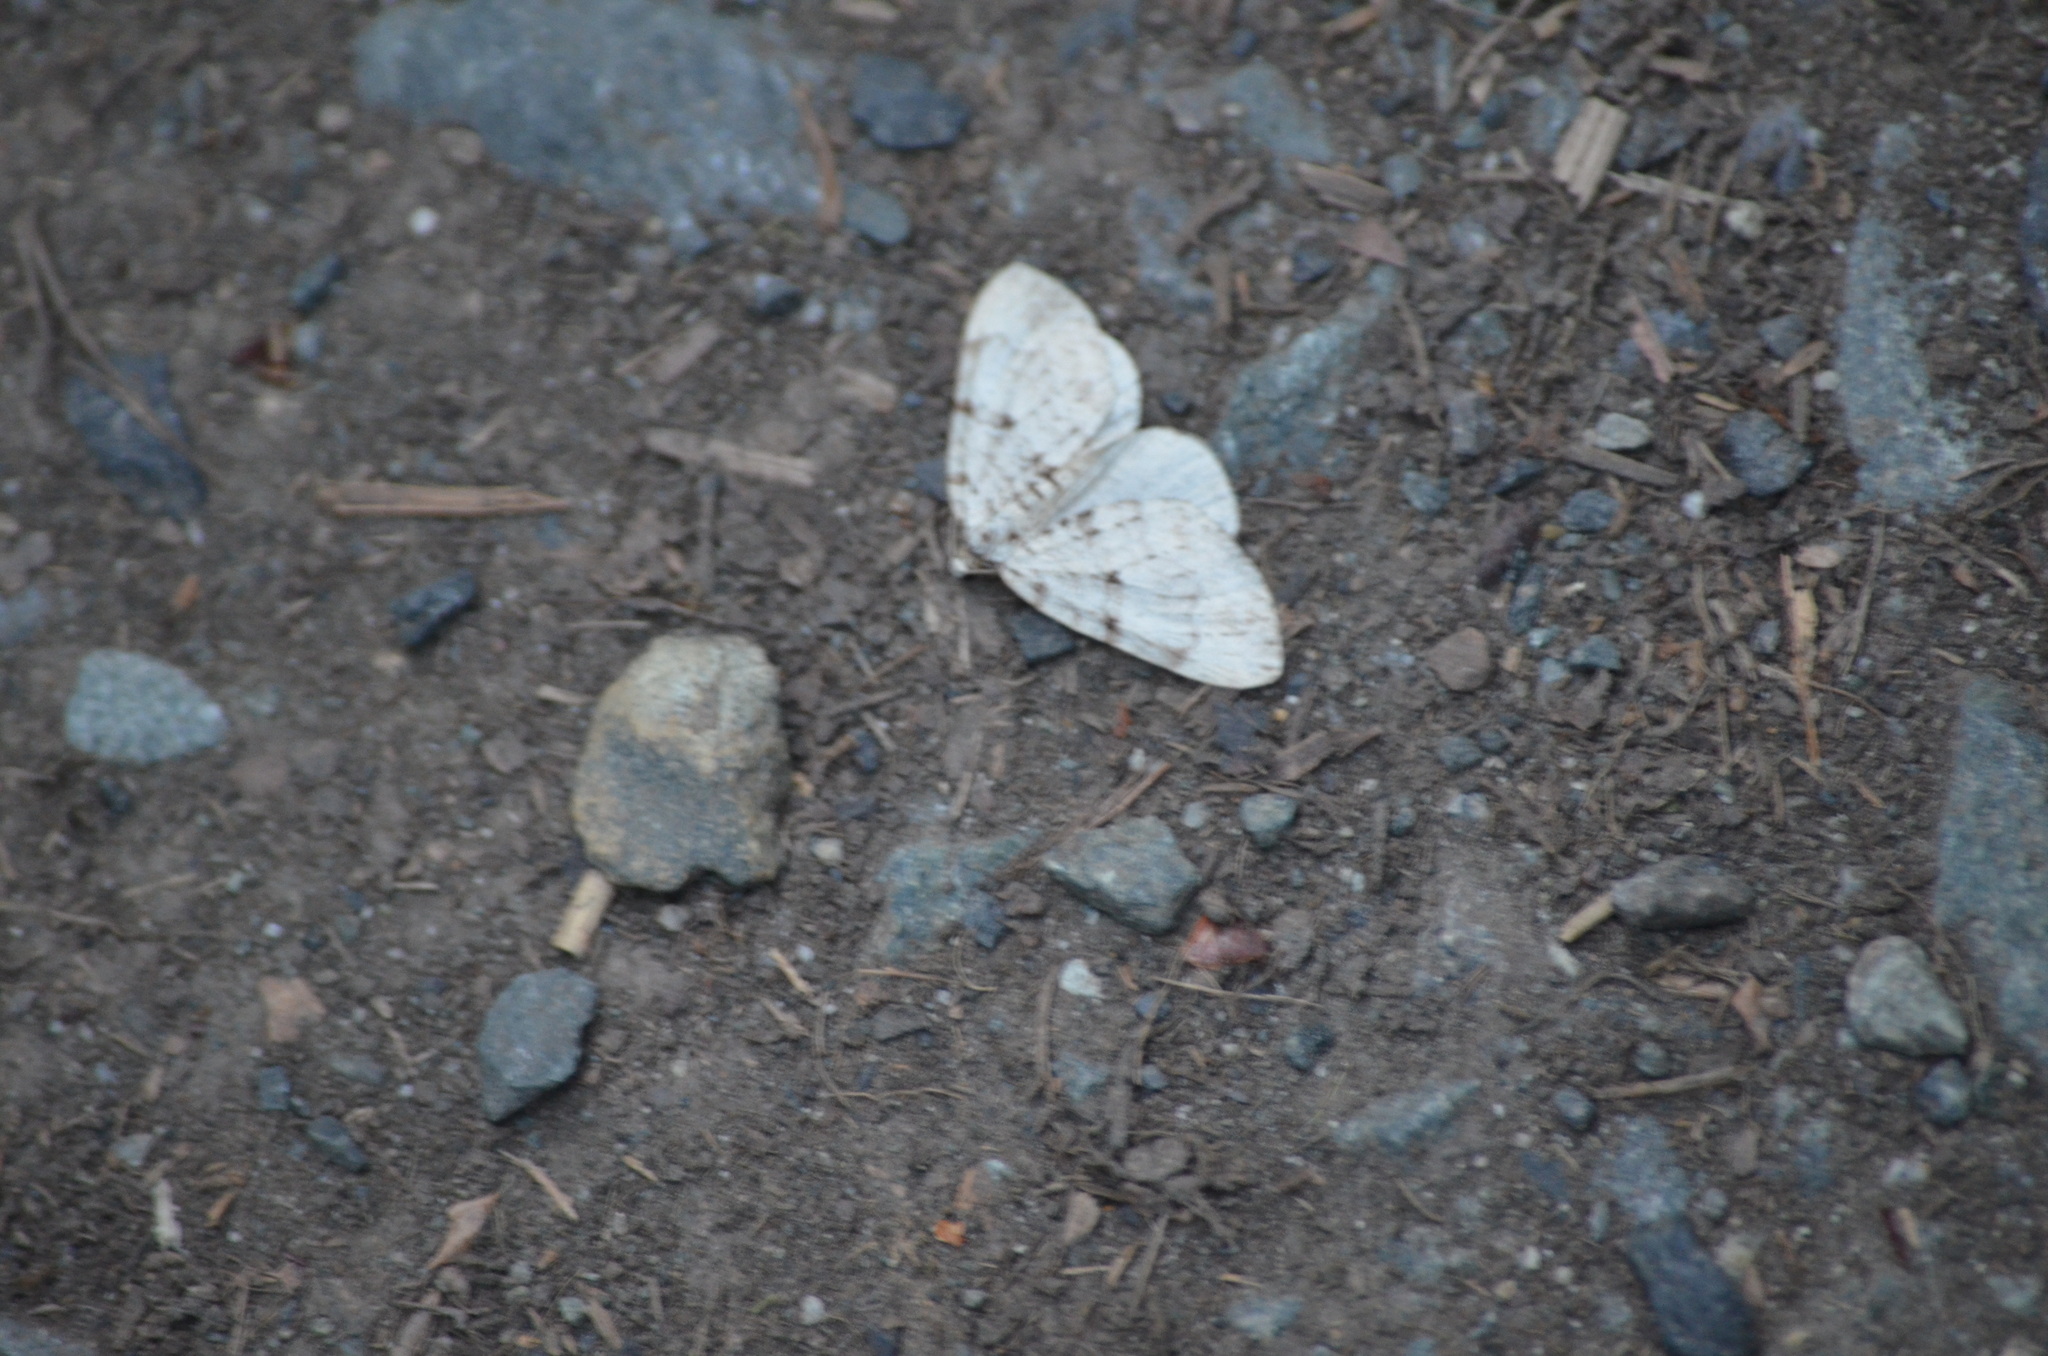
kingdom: Animalia
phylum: Arthropoda
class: Insecta
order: Lepidoptera
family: Geometridae
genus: Perizoma
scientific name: Perizoma curvilinea
